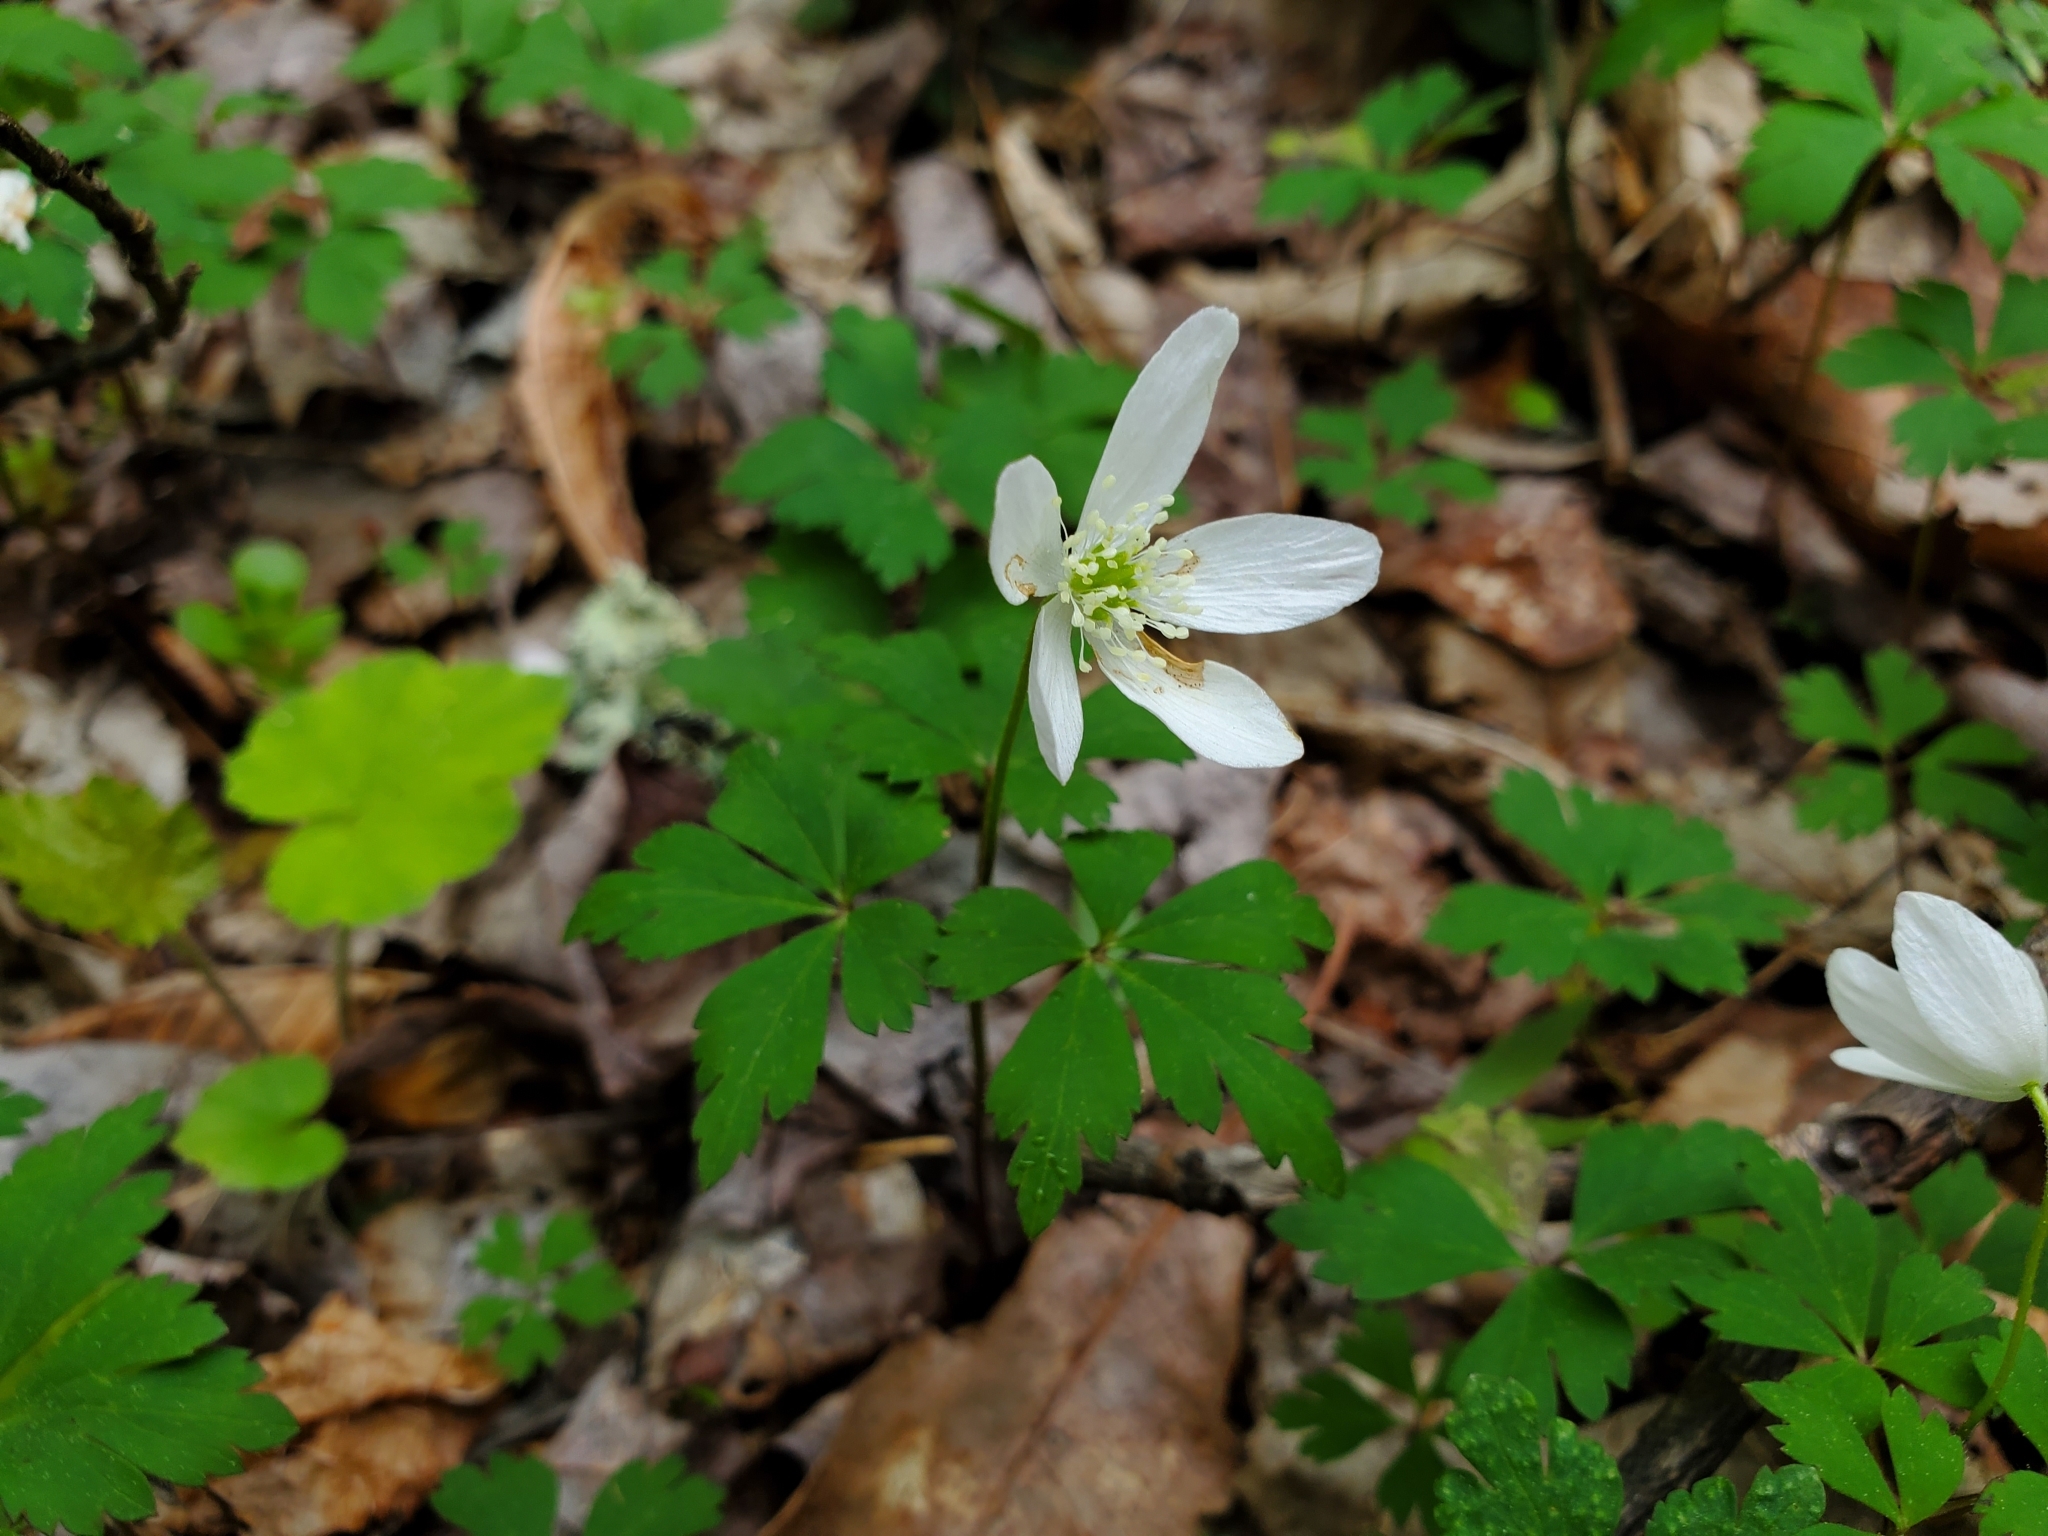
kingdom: Plantae
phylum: Tracheophyta
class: Magnoliopsida
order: Ranunculales
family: Ranunculaceae
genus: Anemone
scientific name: Anemone quinquefolia
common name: Wood anemone
